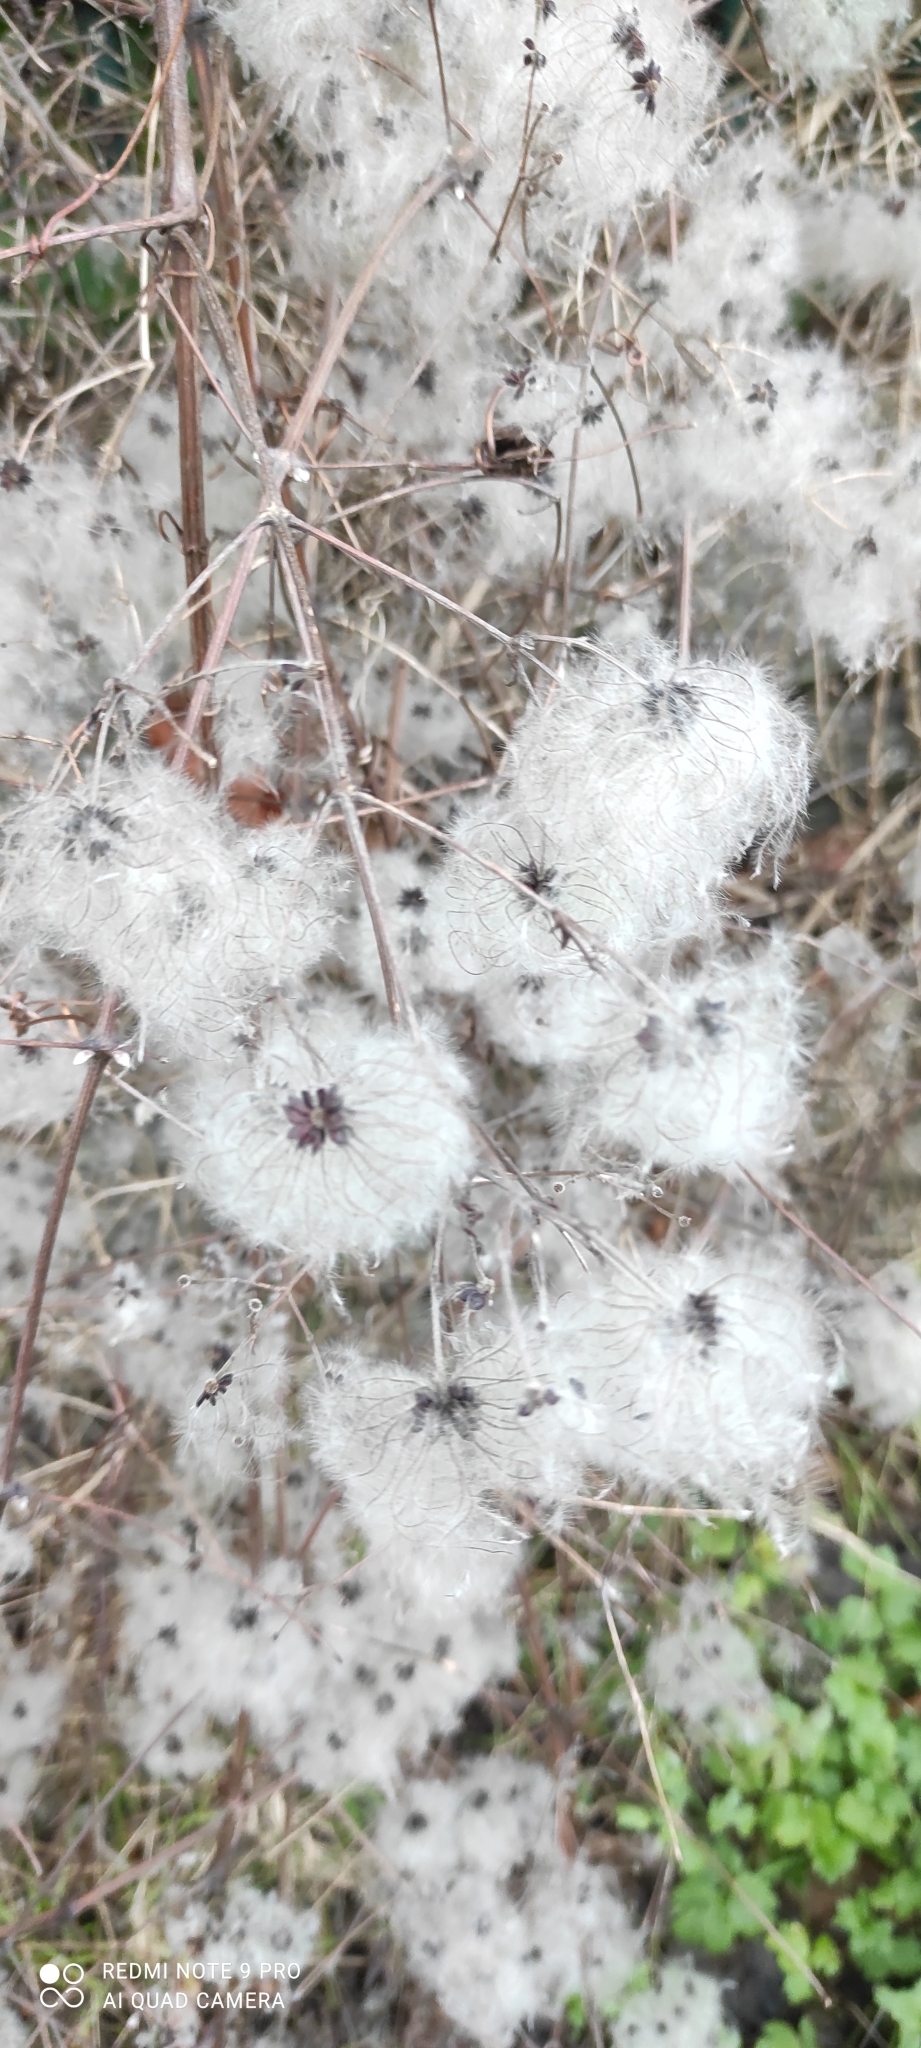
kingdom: Plantae
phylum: Tracheophyta
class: Magnoliopsida
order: Ranunculales
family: Ranunculaceae
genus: Clematis
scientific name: Clematis vitalba
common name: Evergreen clematis
